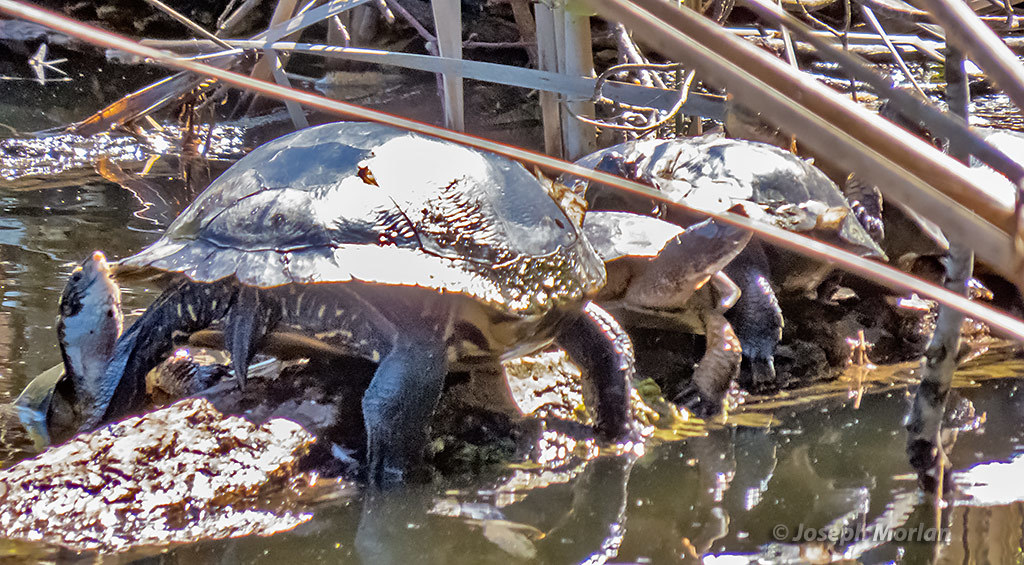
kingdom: Animalia
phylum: Chordata
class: Testudines
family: Emydidae
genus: Actinemys
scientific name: Actinemys marmorata
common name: Western pond turtle
